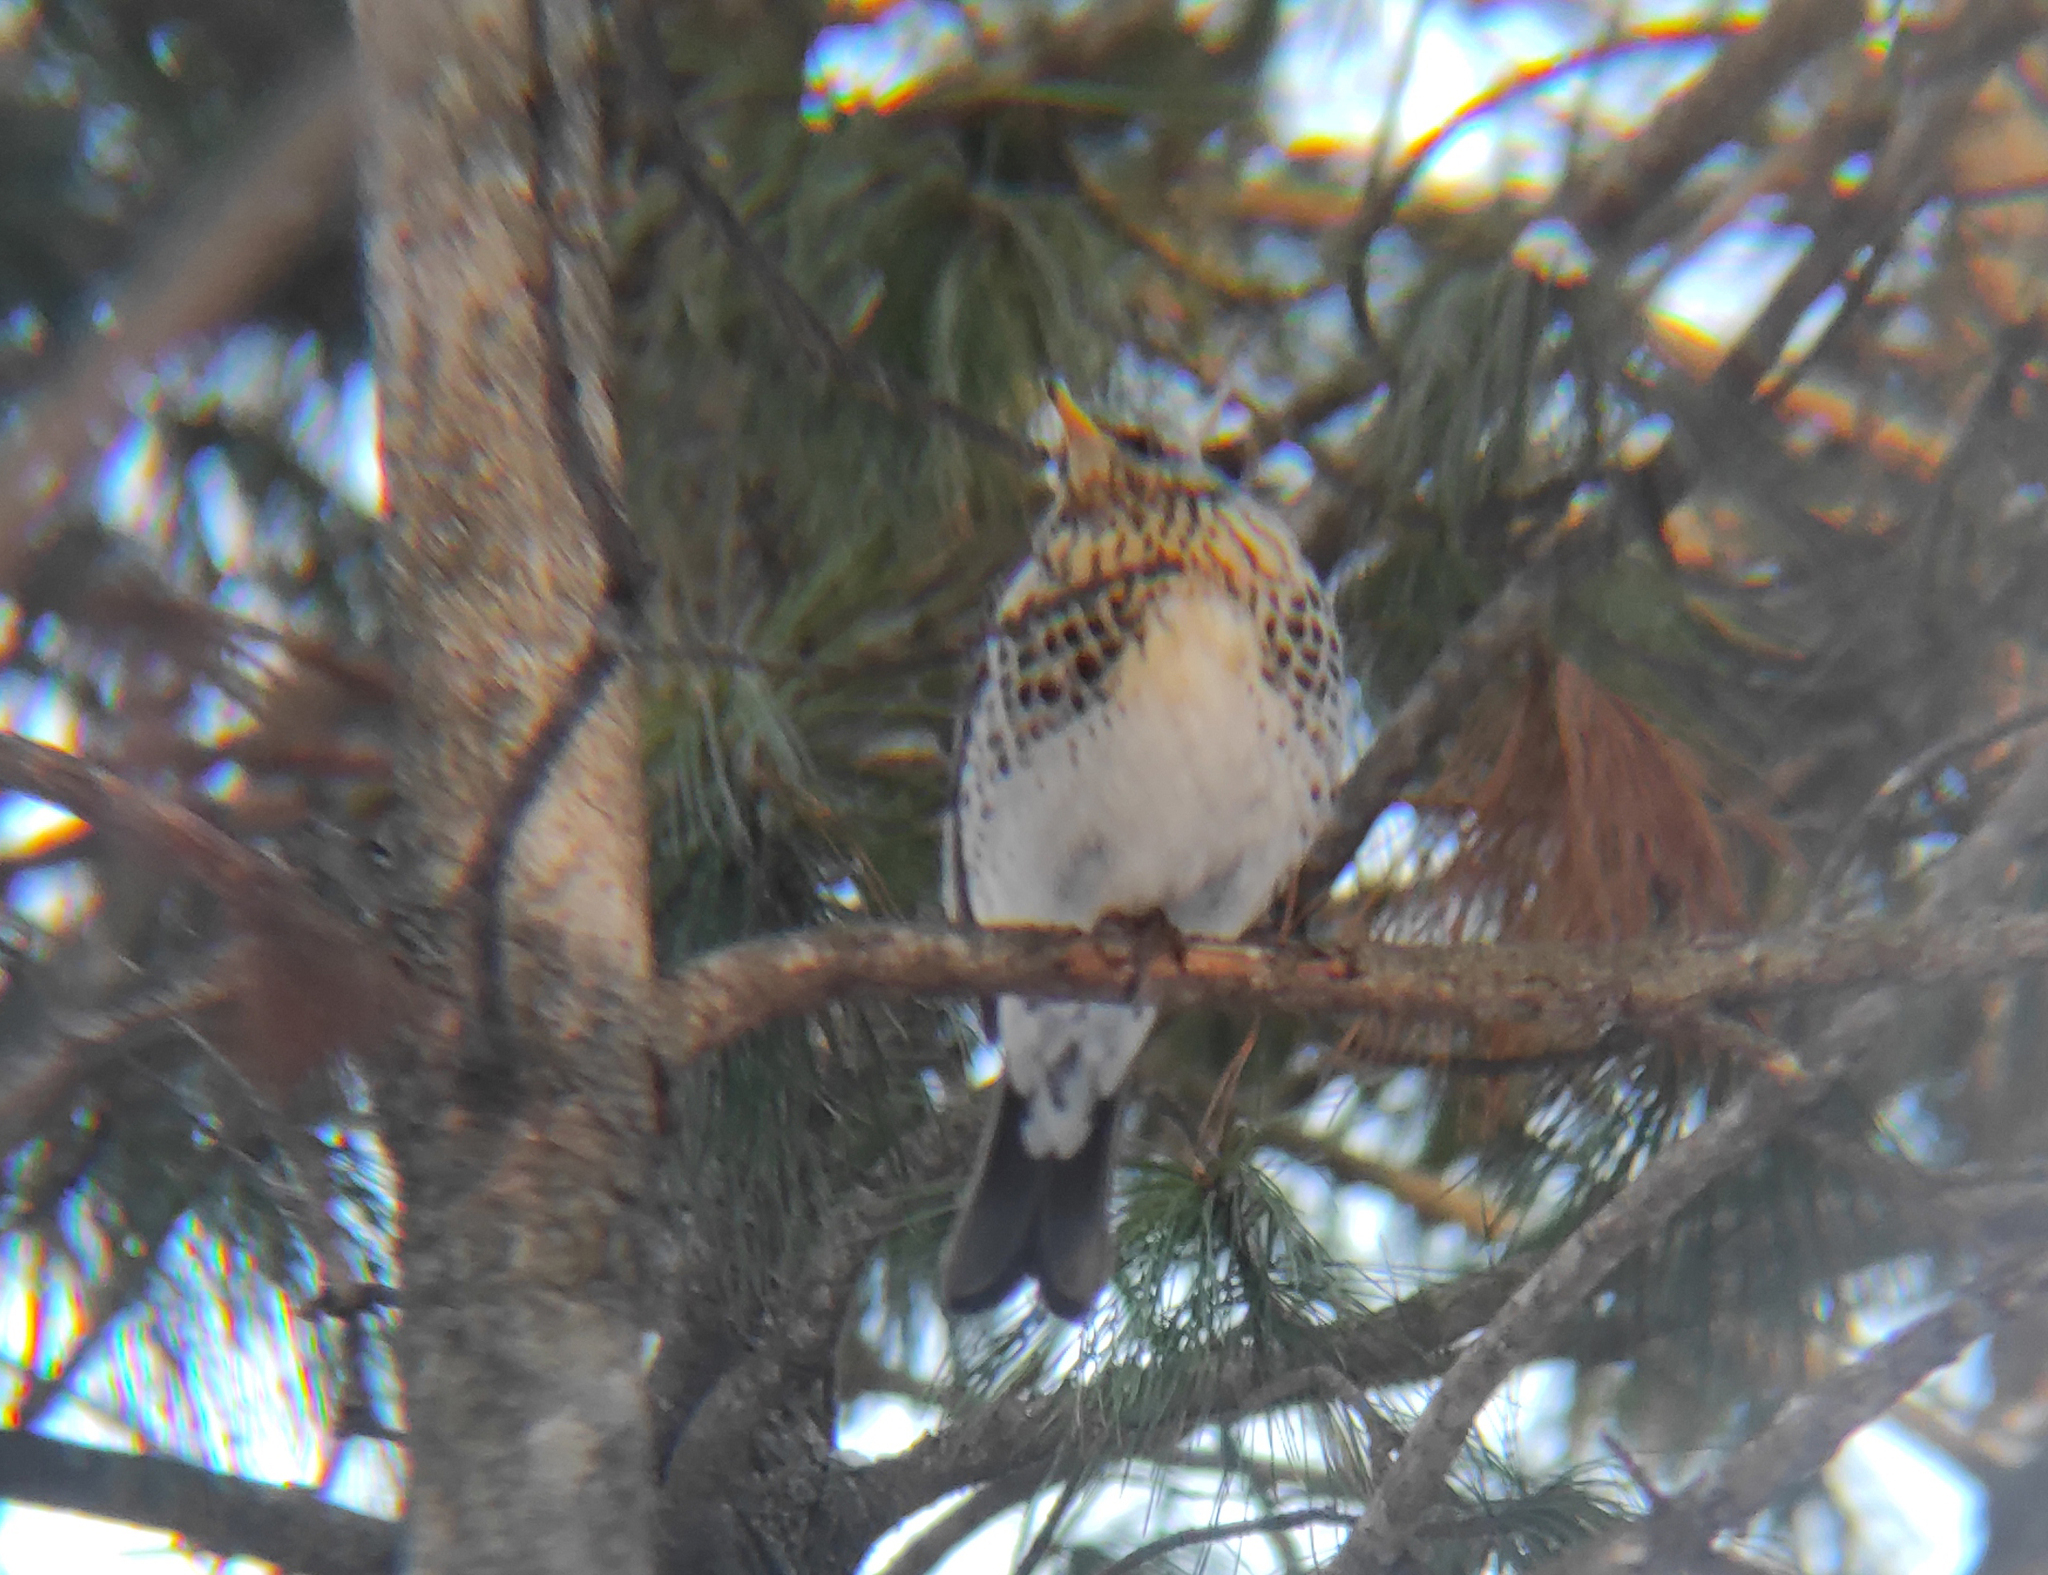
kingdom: Animalia
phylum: Chordata
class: Aves
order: Passeriformes
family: Turdidae
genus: Turdus
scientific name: Turdus pilaris
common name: Fieldfare
